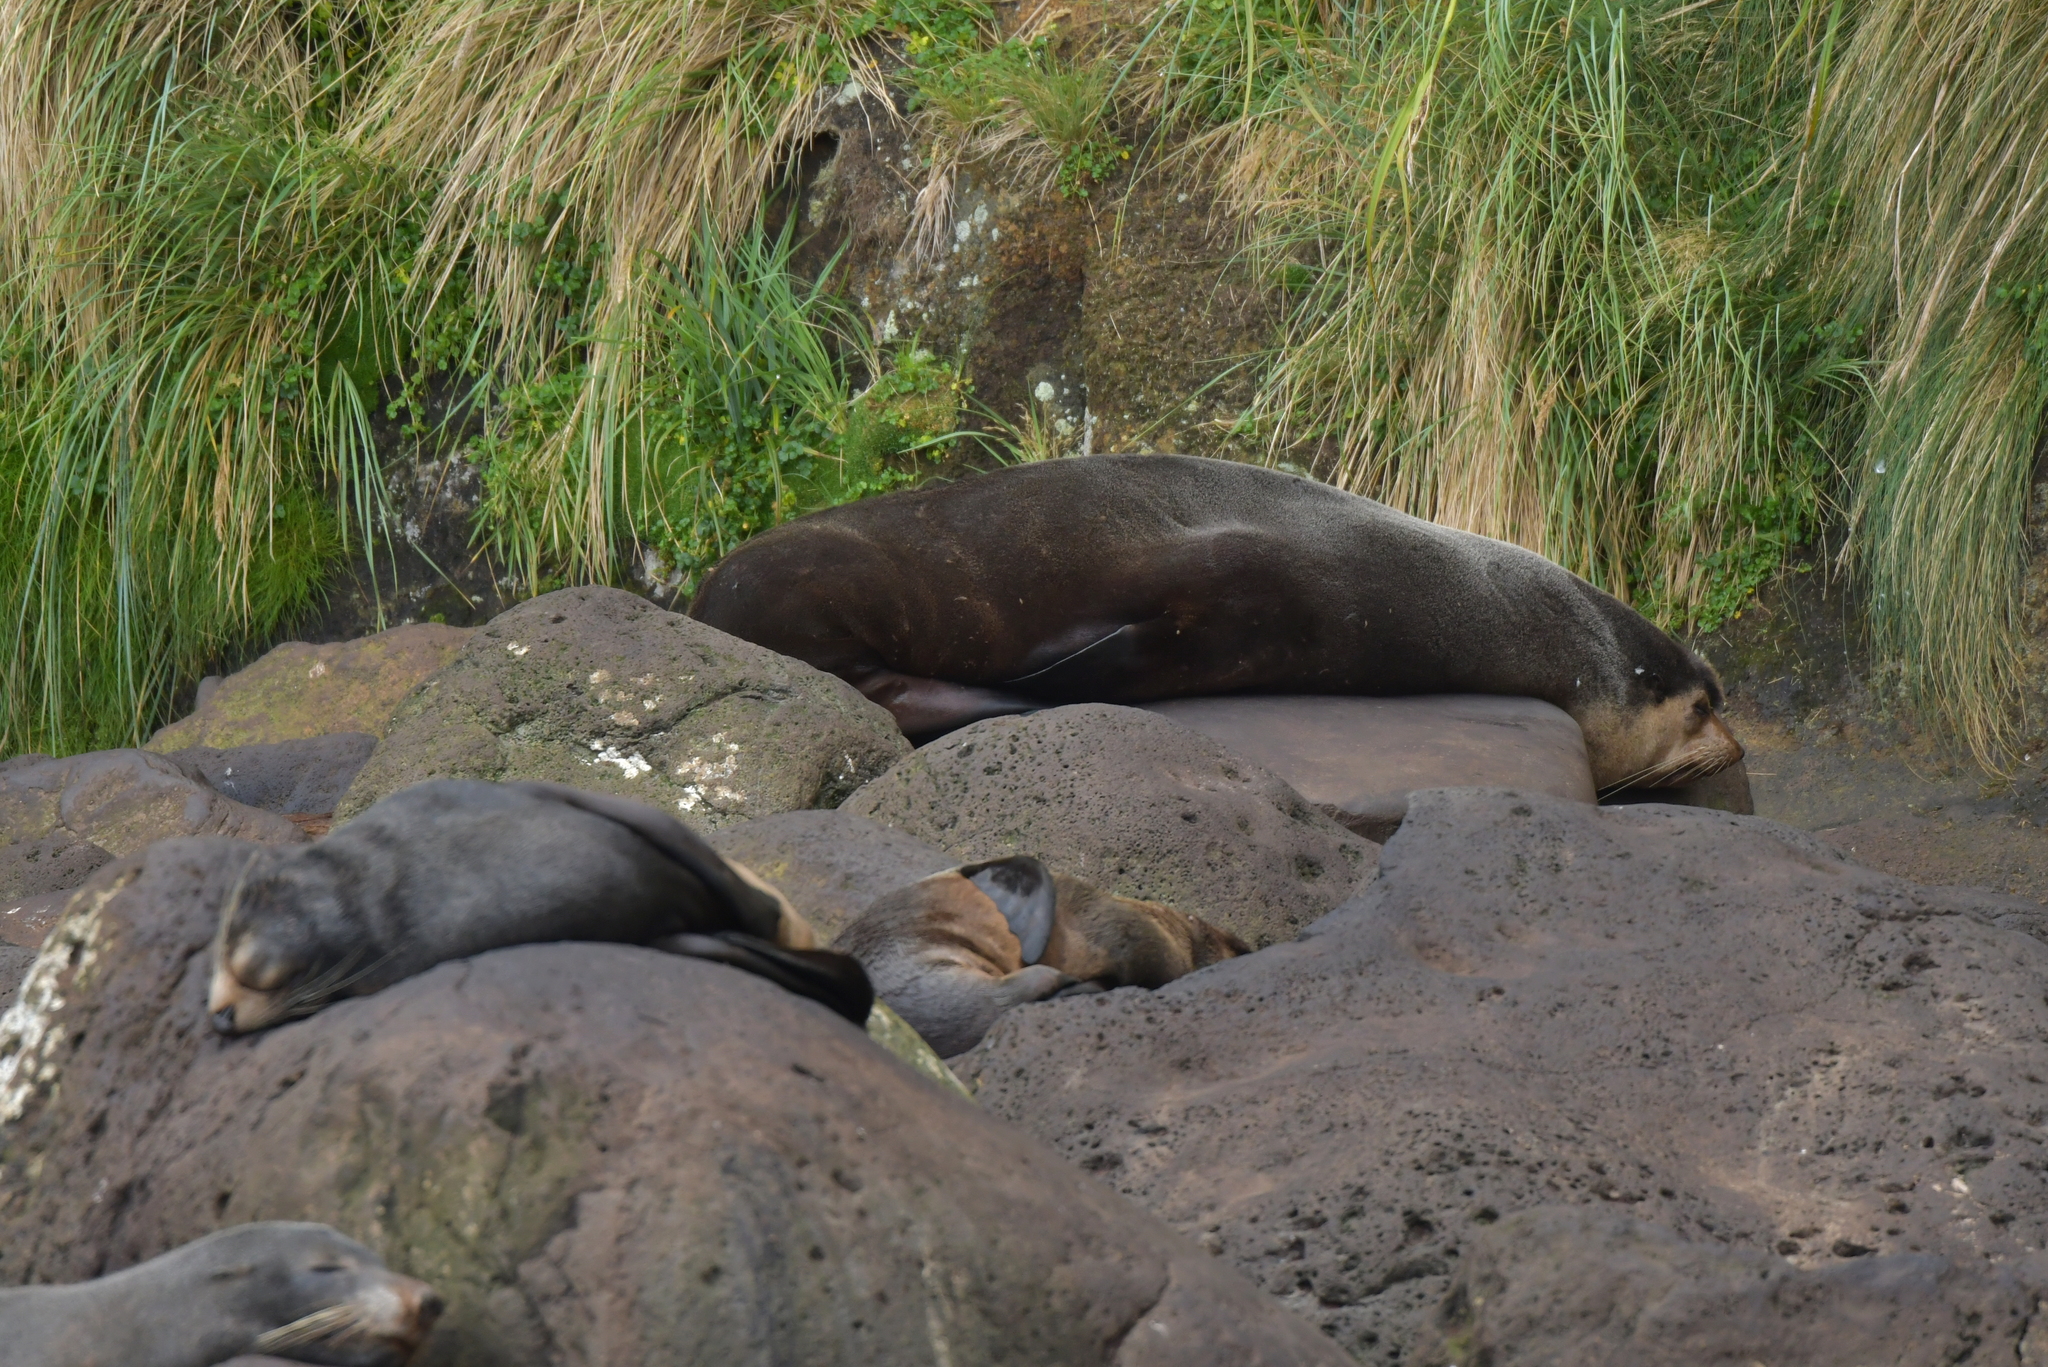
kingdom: Animalia
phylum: Chordata
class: Mammalia
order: Carnivora
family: Otariidae
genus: Arctocephalus
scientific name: Arctocephalus tropicalis
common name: Subantarctic fur seal
